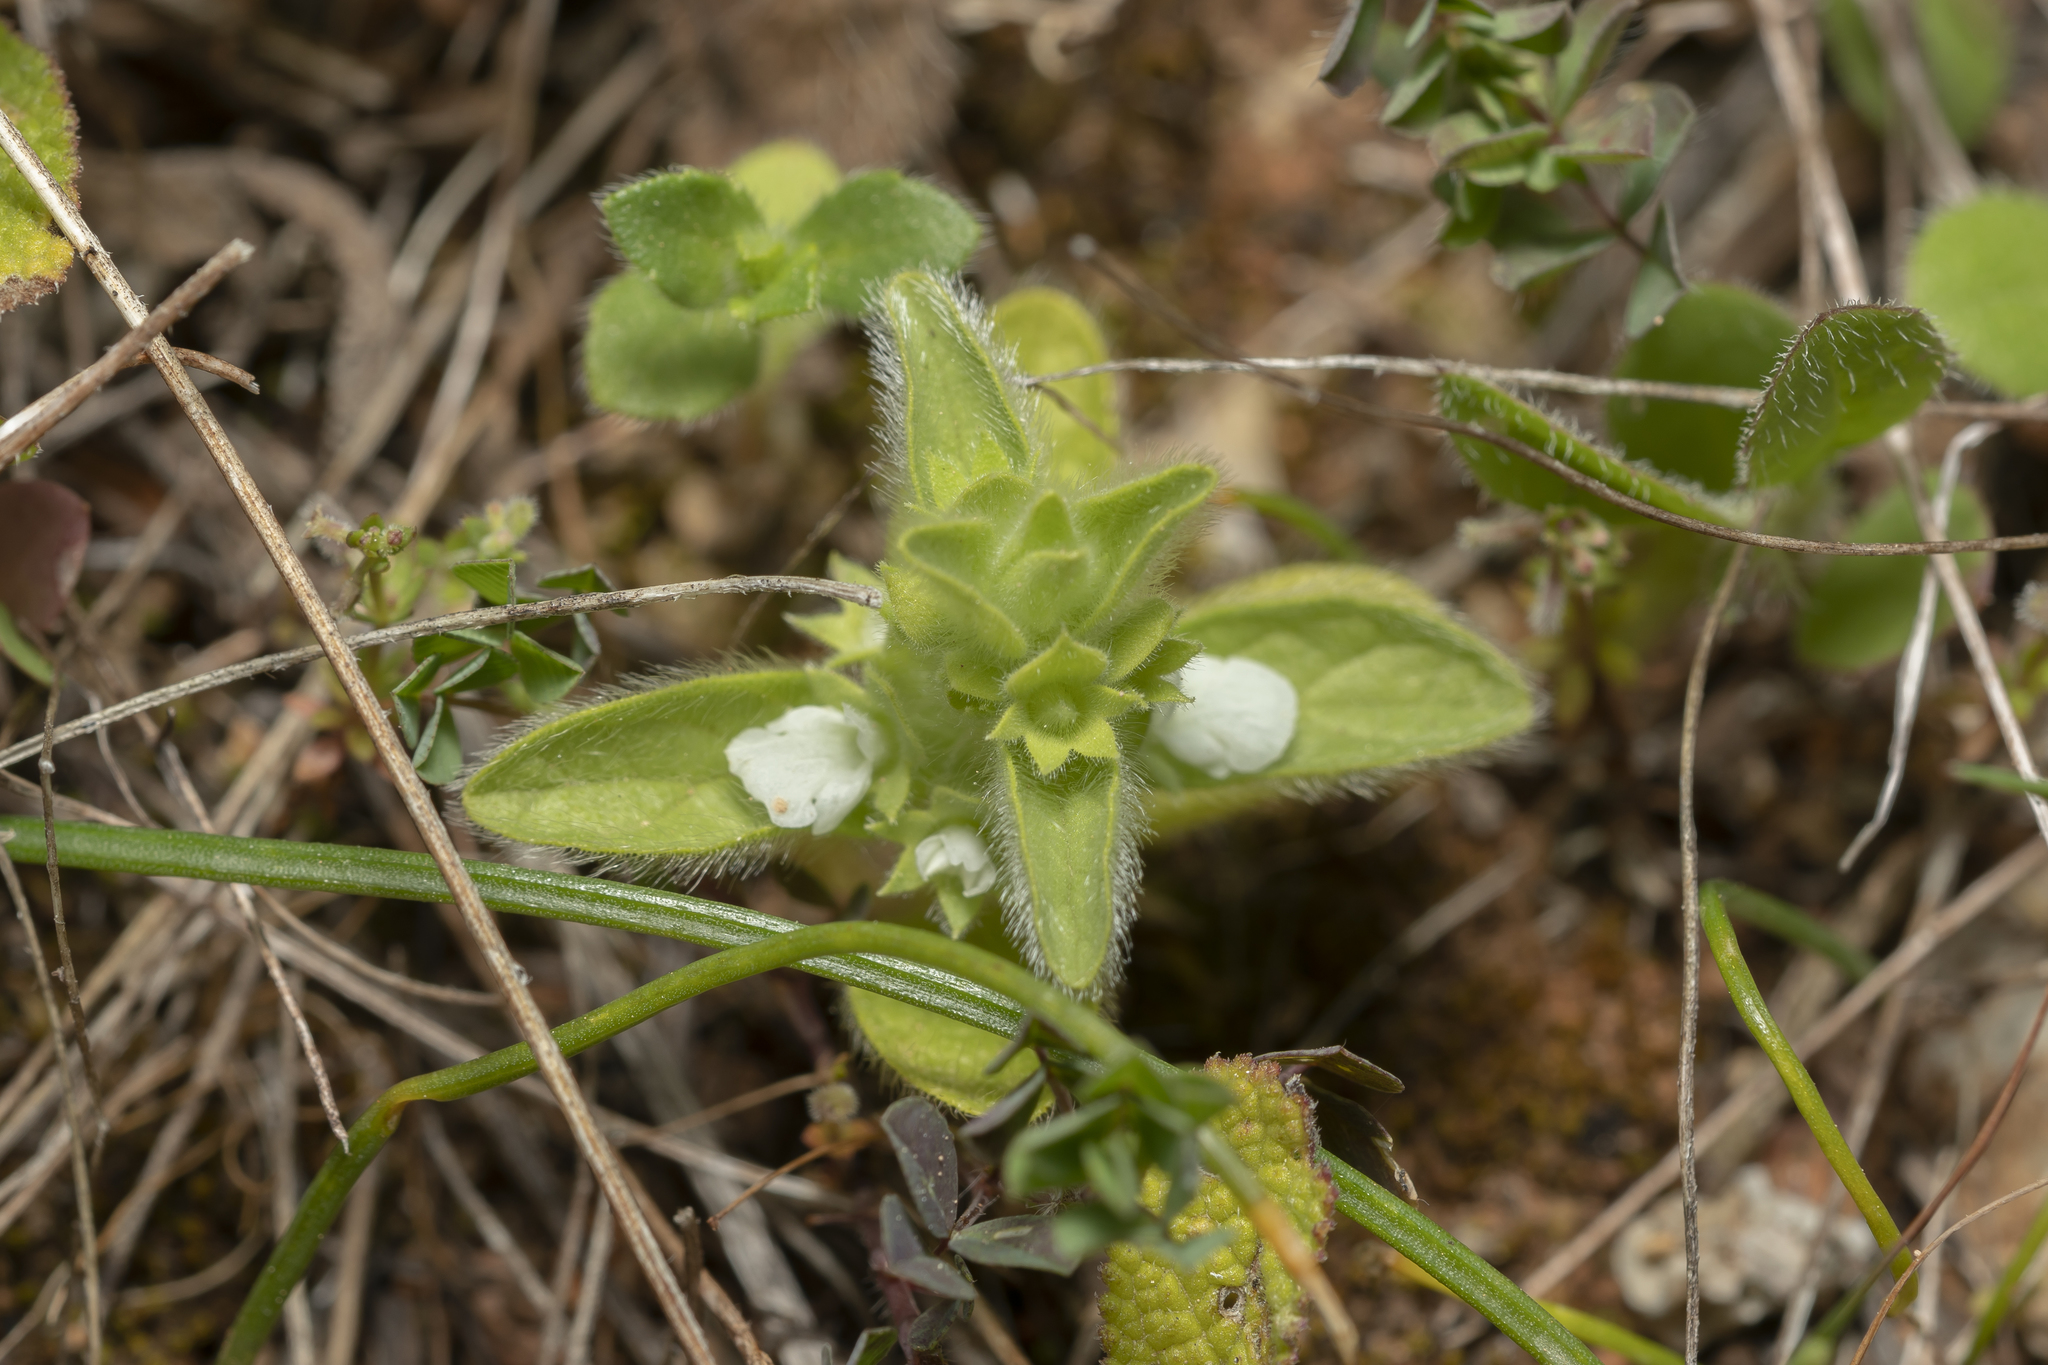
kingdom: Plantae
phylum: Tracheophyta
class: Magnoliopsida
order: Lamiales
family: Lamiaceae
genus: Sideritis
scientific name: Sideritis romana
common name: Simplebeak ironwort
